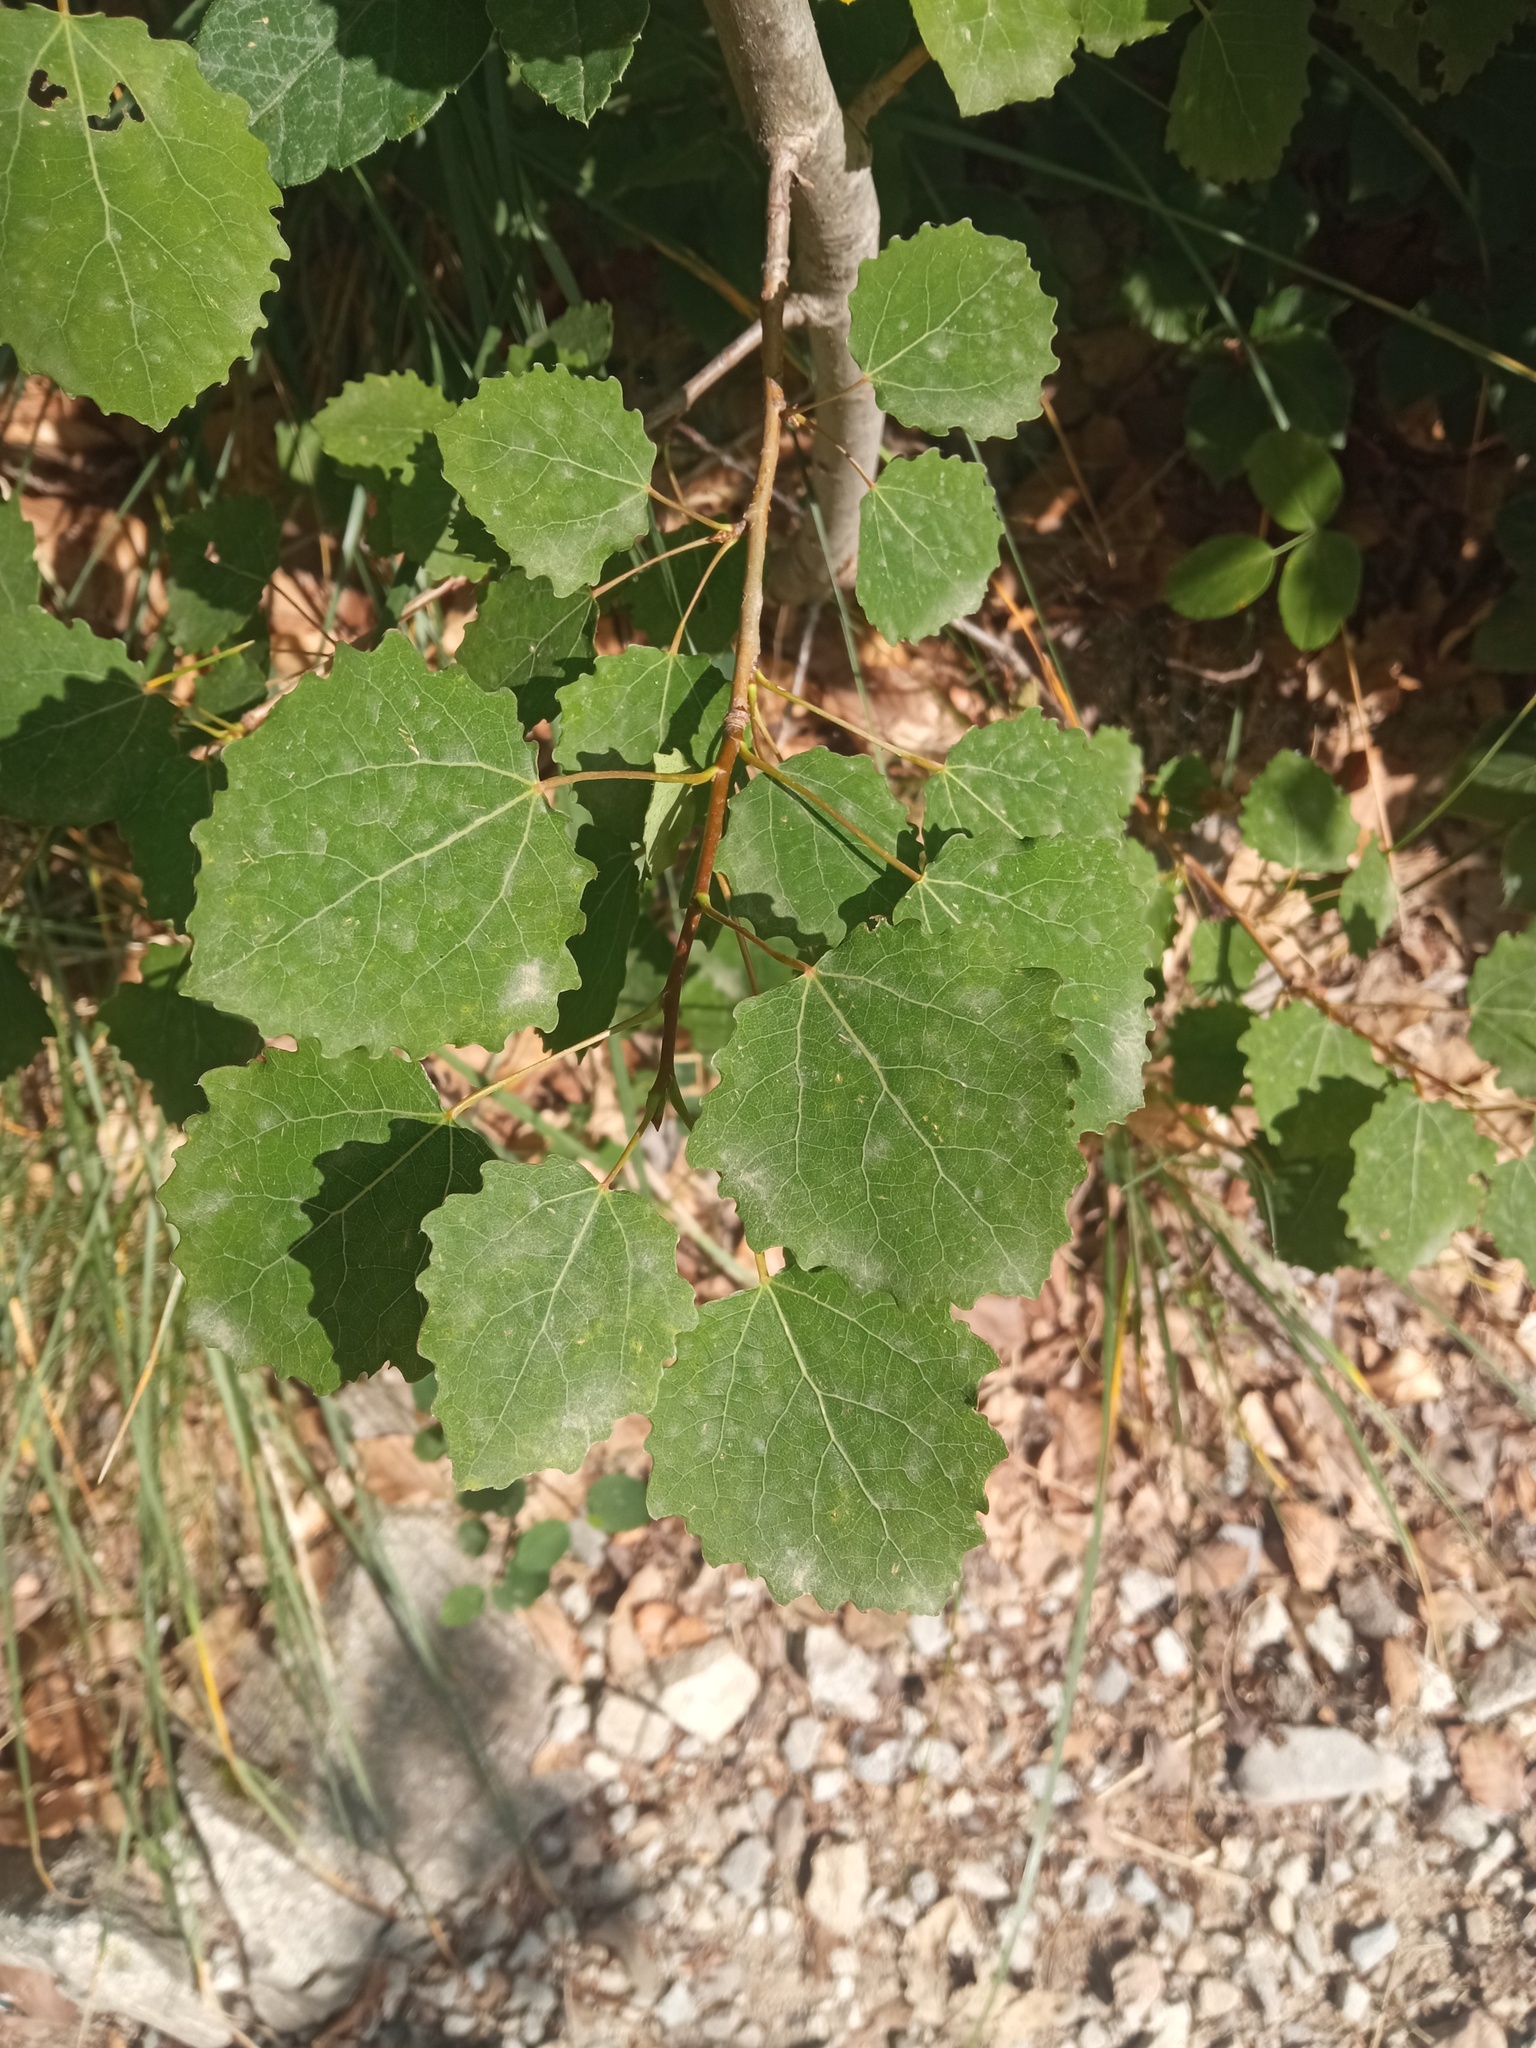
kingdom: Plantae
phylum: Tracheophyta
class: Magnoliopsida
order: Malpighiales
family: Salicaceae
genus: Populus
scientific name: Populus tremula
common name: European aspen
